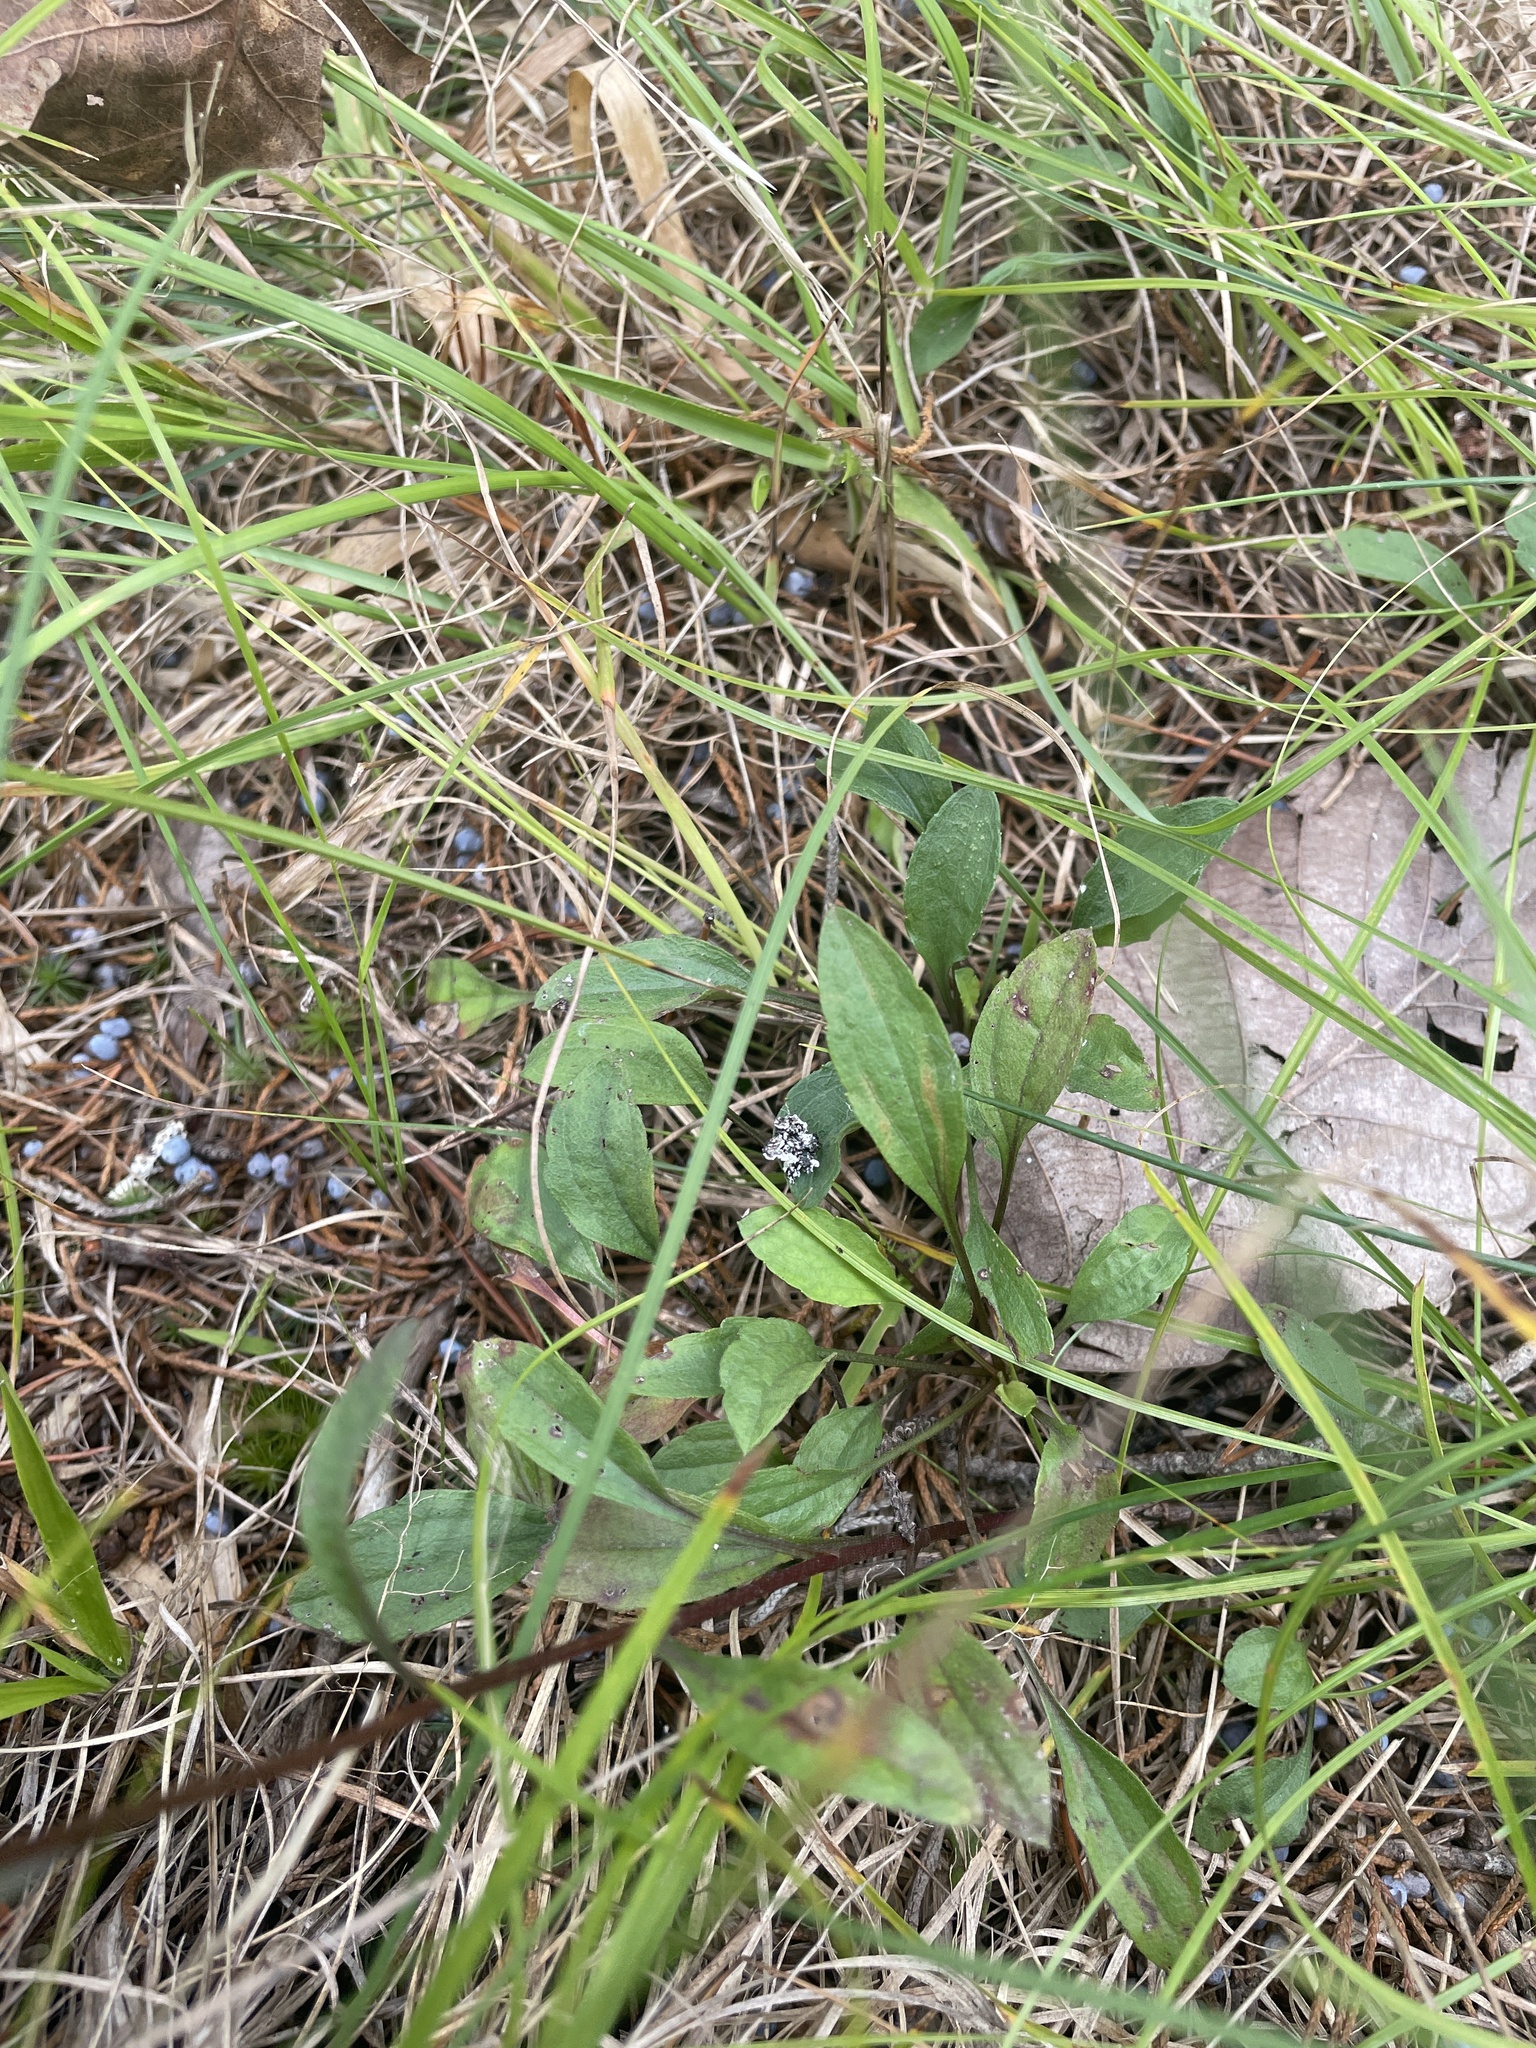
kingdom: Plantae
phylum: Tracheophyta
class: Magnoliopsida
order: Asterales
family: Asteraceae
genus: Erigeron
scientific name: Erigeron strigosus
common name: Common eastern fleabane
